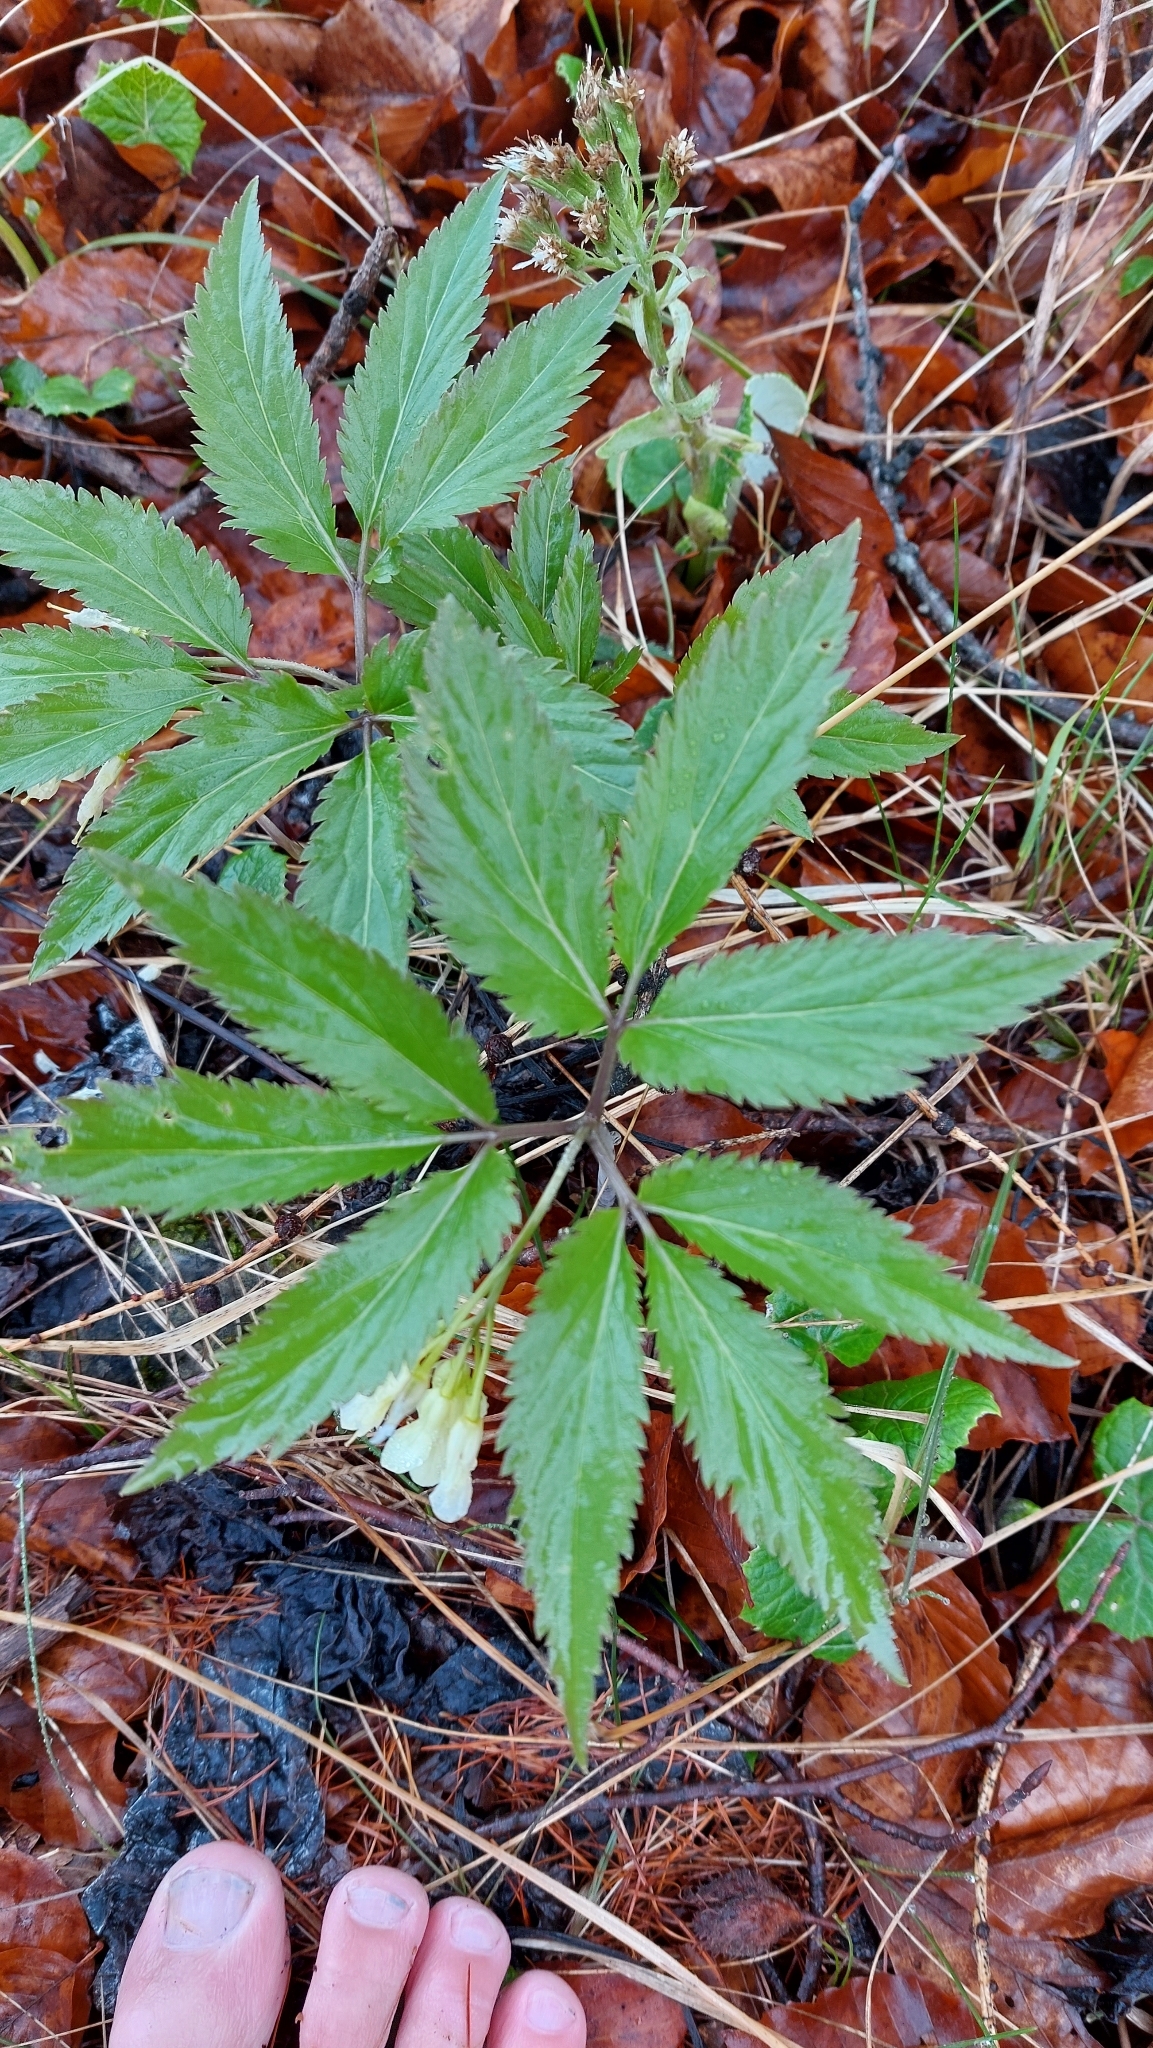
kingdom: Plantae
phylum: Tracheophyta
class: Magnoliopsida
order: Brassicales
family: Brassicaceae
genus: Cardamine
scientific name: Cardamine enneaphyllos
